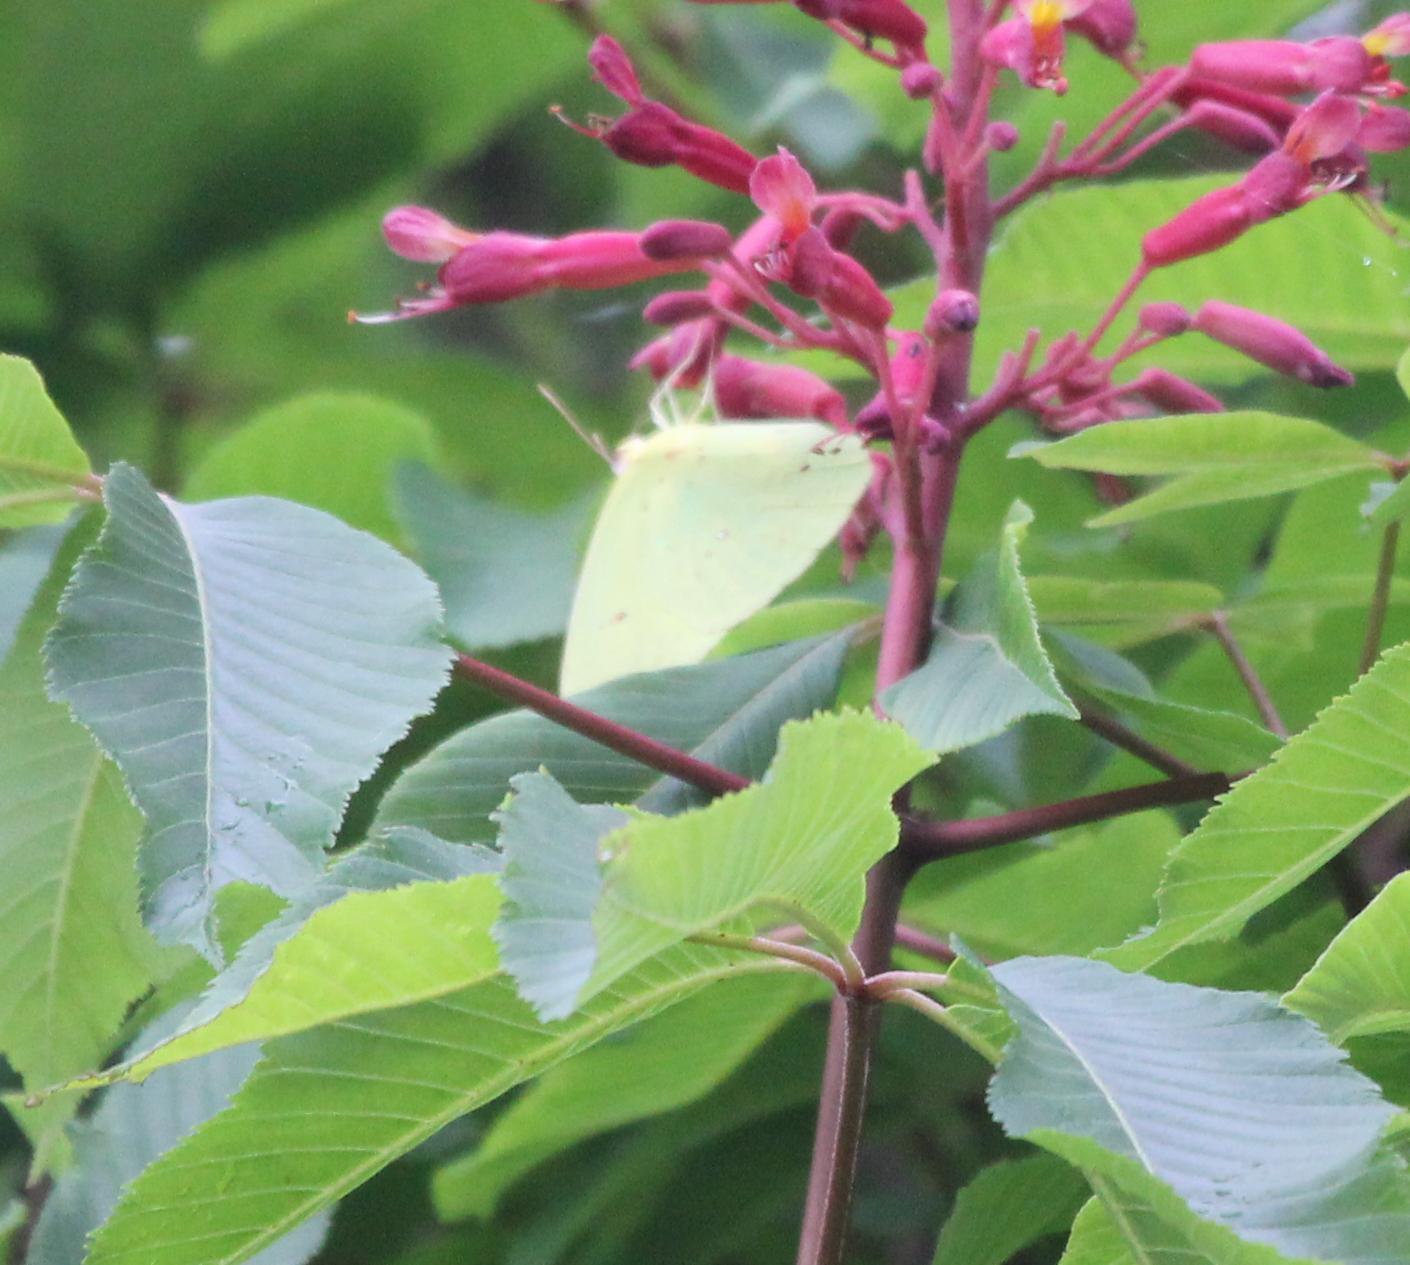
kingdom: Animalia
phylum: Arthropoda
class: Insecta
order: Lepidoptera
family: Pieridae
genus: Phoebis
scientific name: Phoebis sennae
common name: Cloudless sulphur
